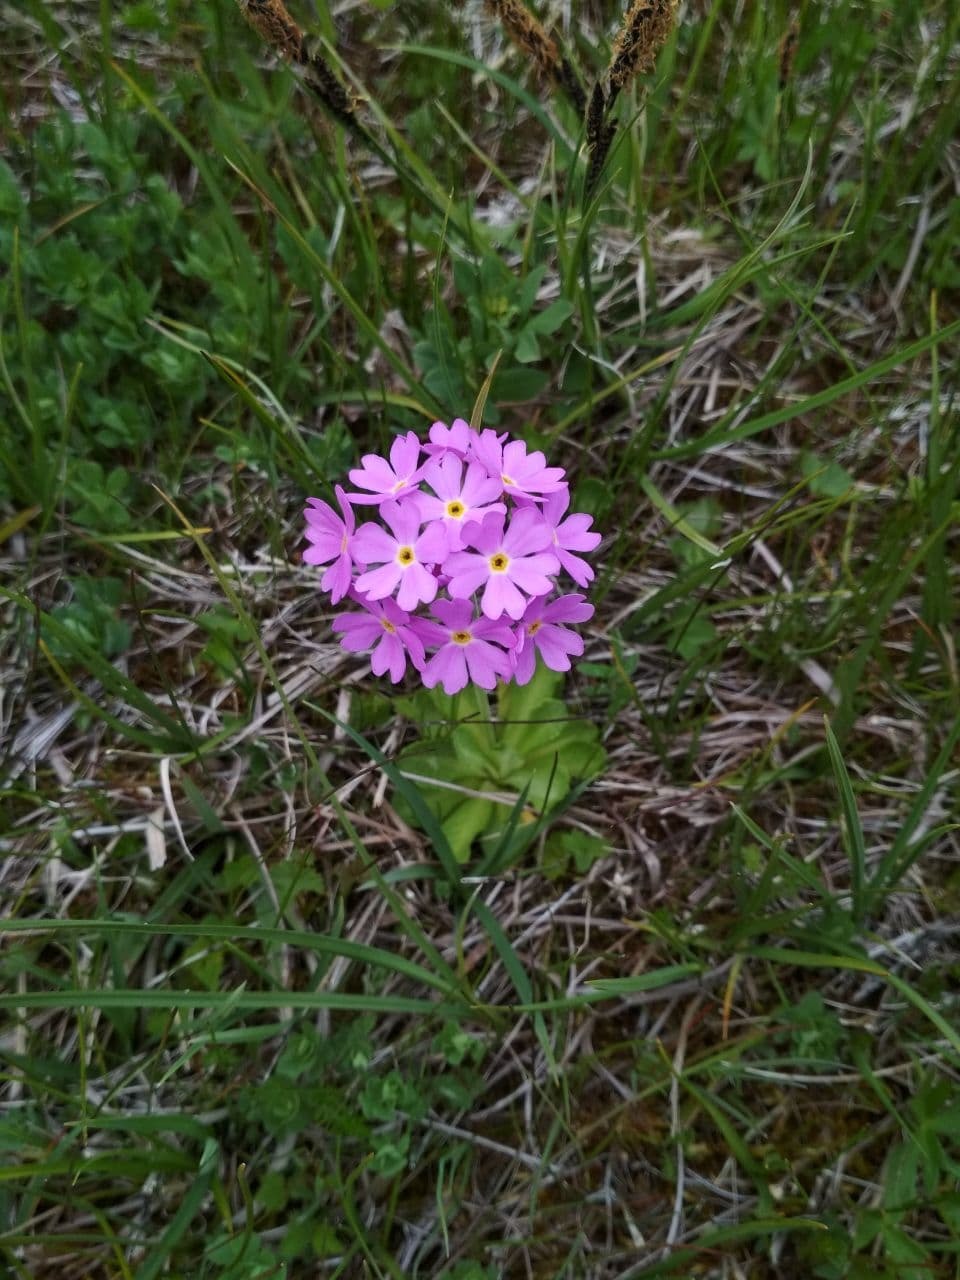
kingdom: Plantae
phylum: Tracheophyta
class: Magnoliopsida
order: Ericales
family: Primulaceae
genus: Primula
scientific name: Primula farinosa
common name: Bird's-eye primrose
